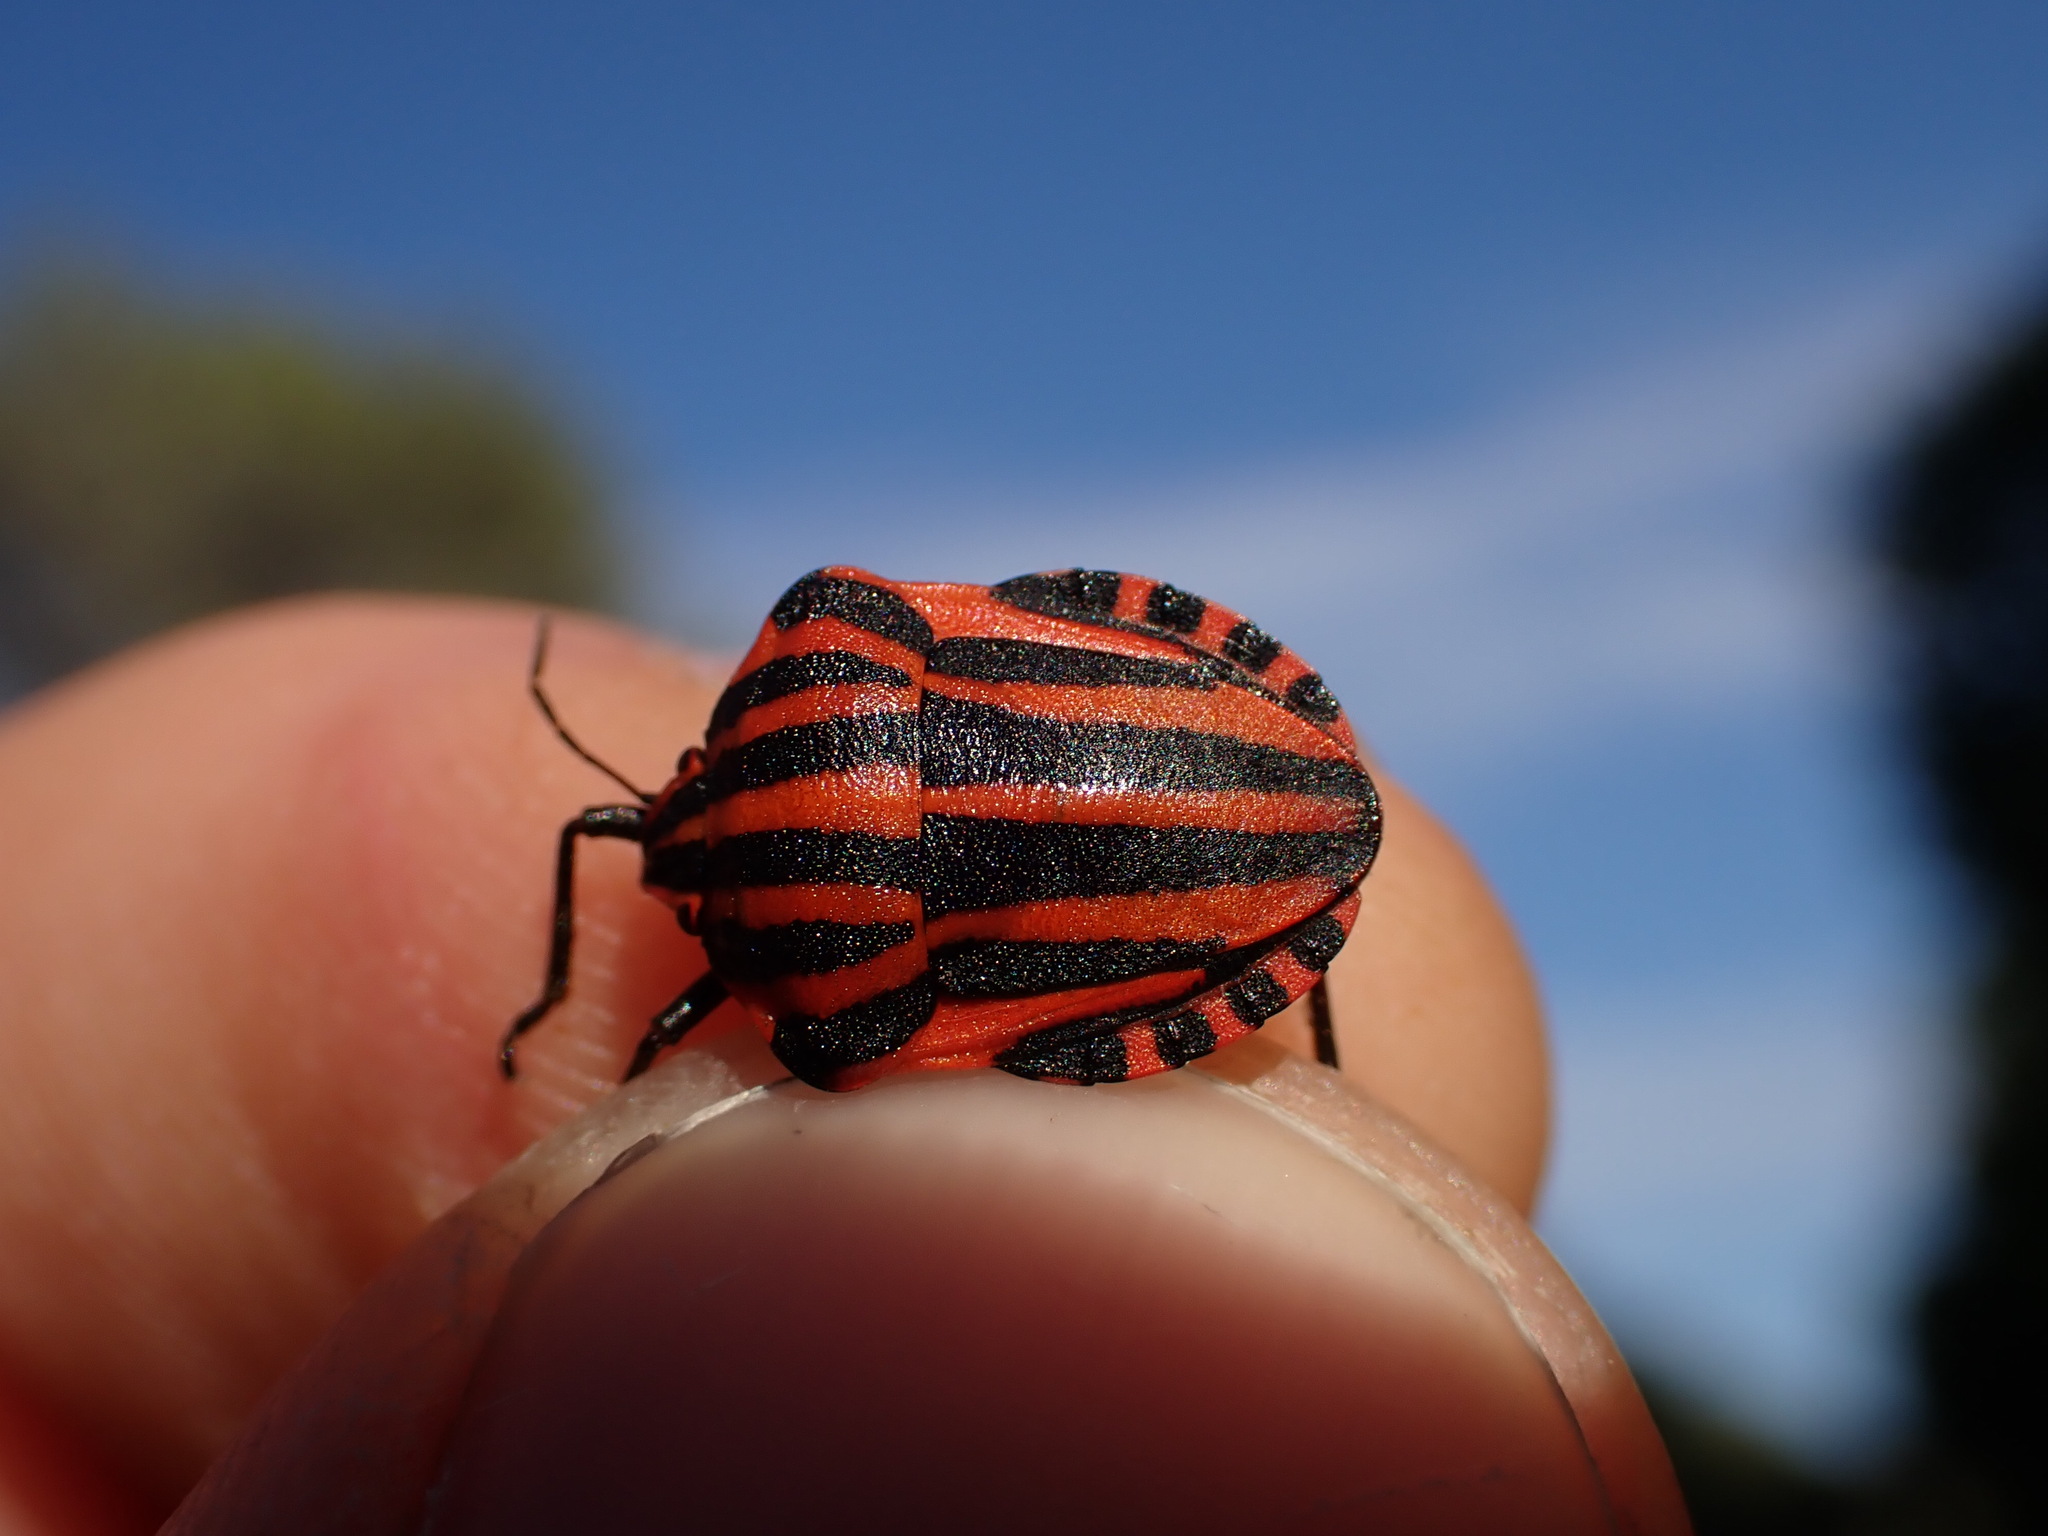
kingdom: Animalia
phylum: Arthropoda
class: Insecta
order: Hemiptera
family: Pentatomidae
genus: Graphosoma
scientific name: Graphosoma italicum
